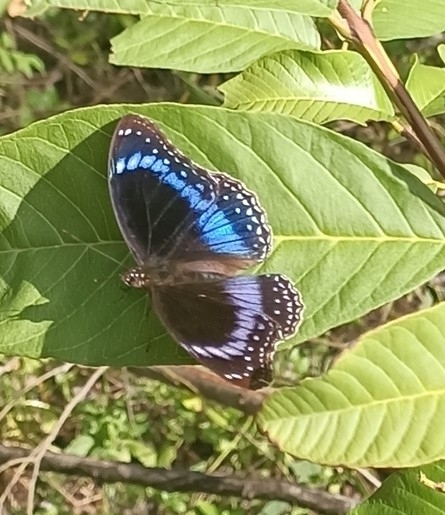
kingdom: Animalia
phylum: Arthropoda
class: Insecta
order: Lepidoptera
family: Nymphalidae
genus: Hypolimnas
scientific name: Hypolimnas alimena
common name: Blue-banded eggfly
